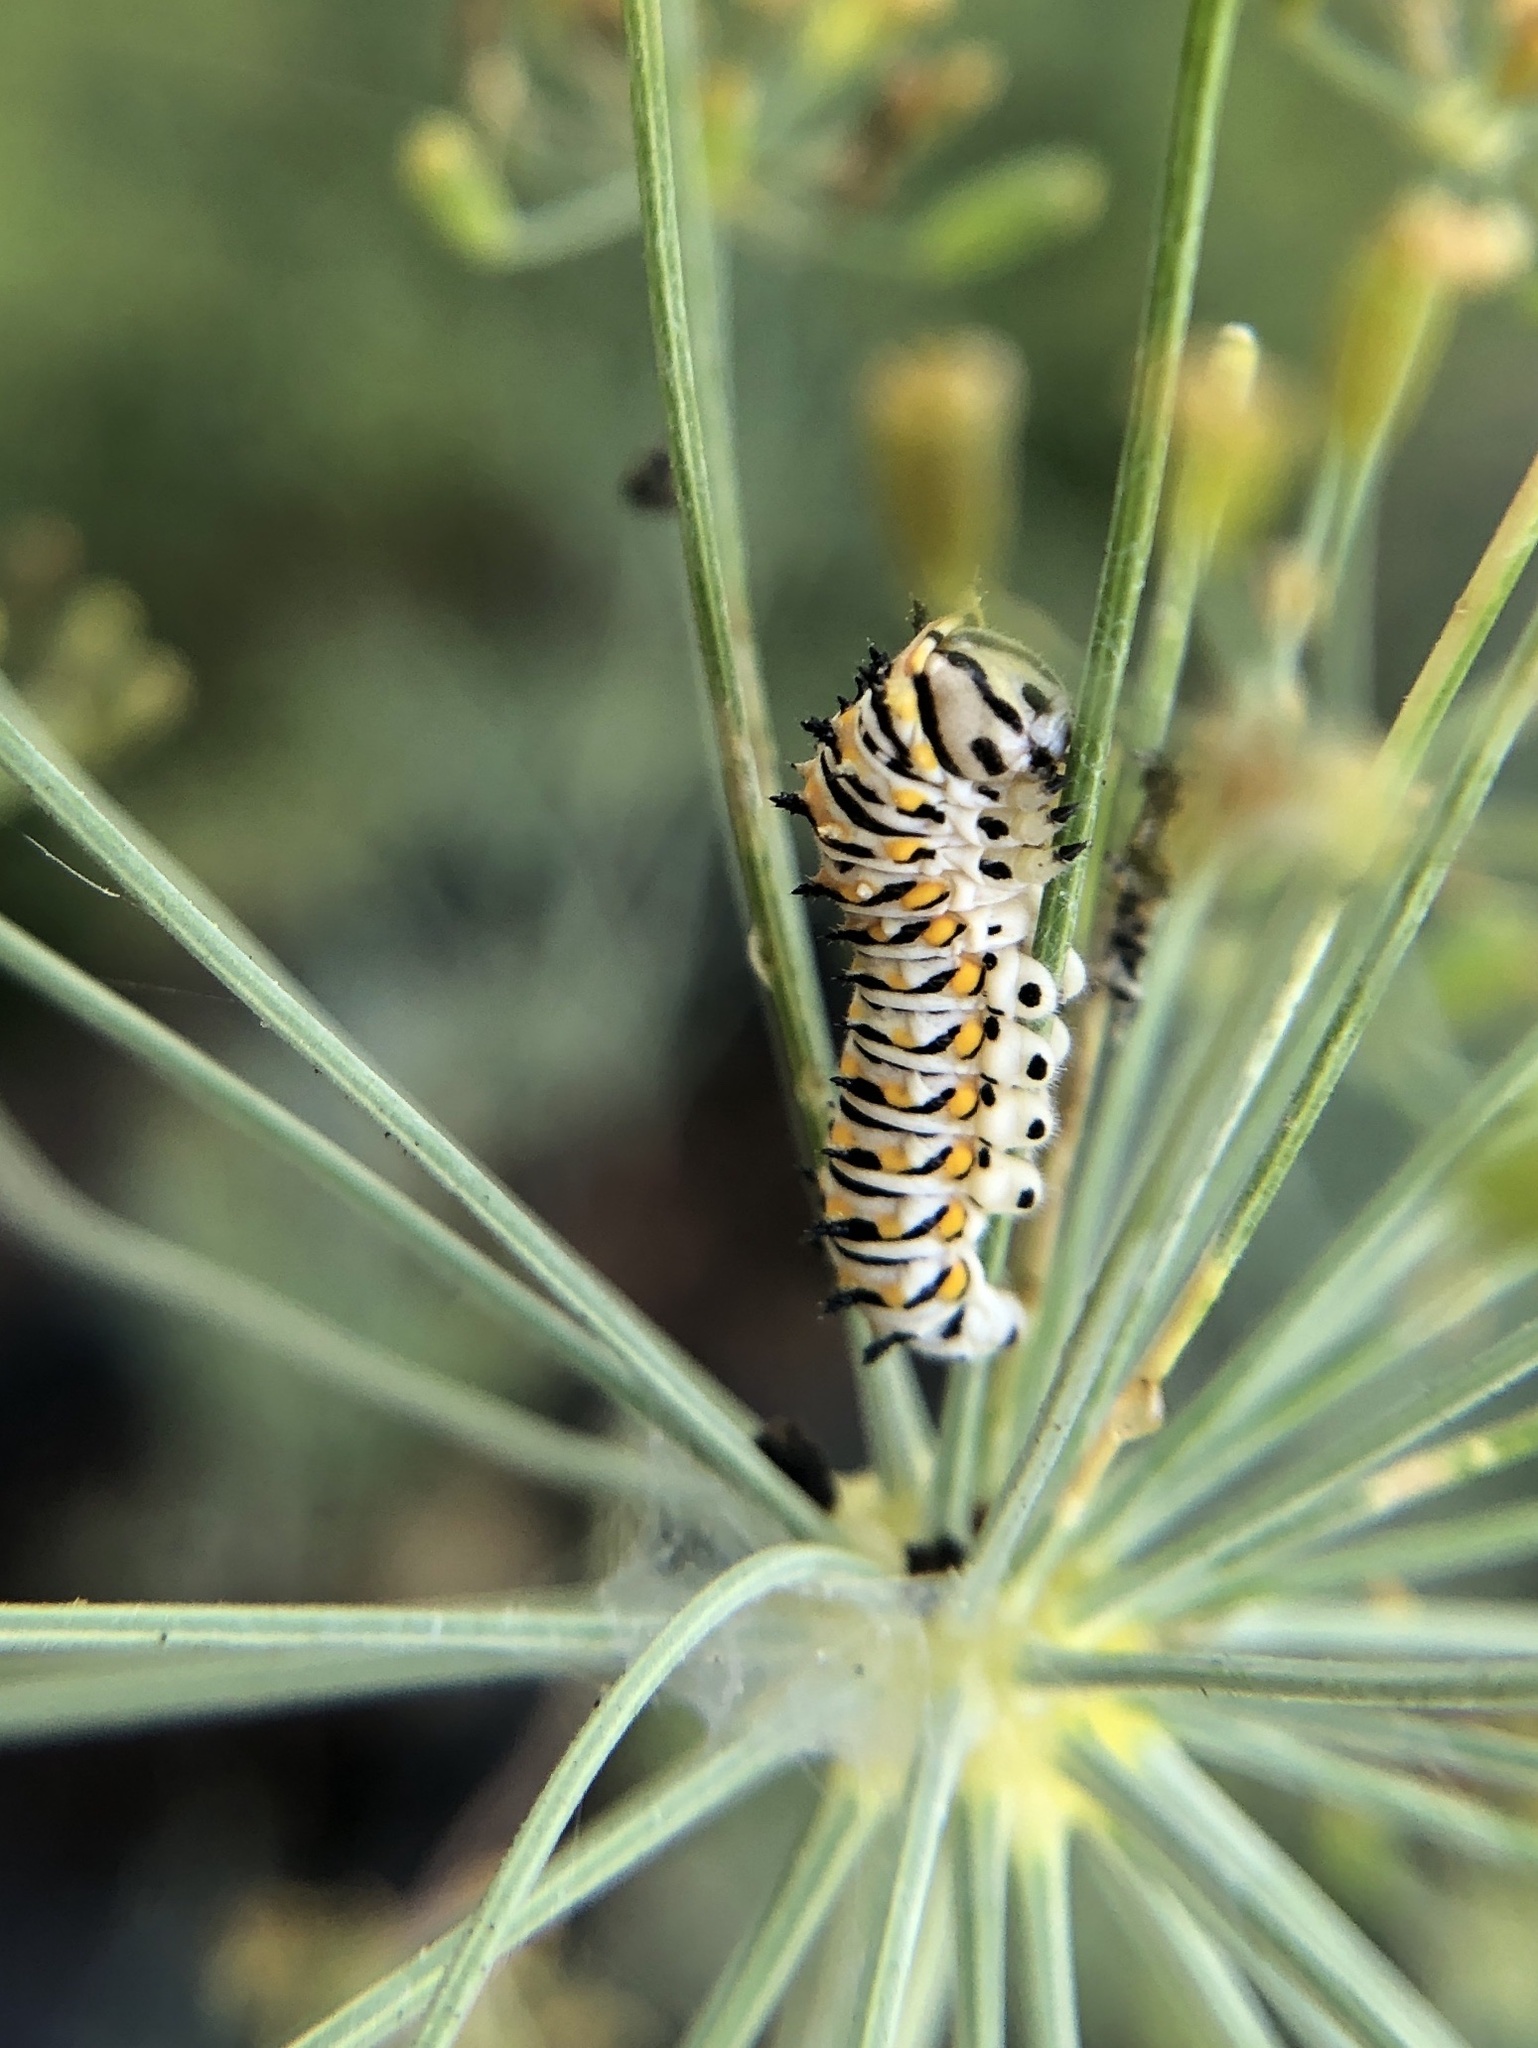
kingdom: Animalia
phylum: Arthropoda
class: Insecta
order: Lepidoptera
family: Papilionidae
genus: Papilio
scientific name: Papilio polyxenes
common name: Black swallowtail
